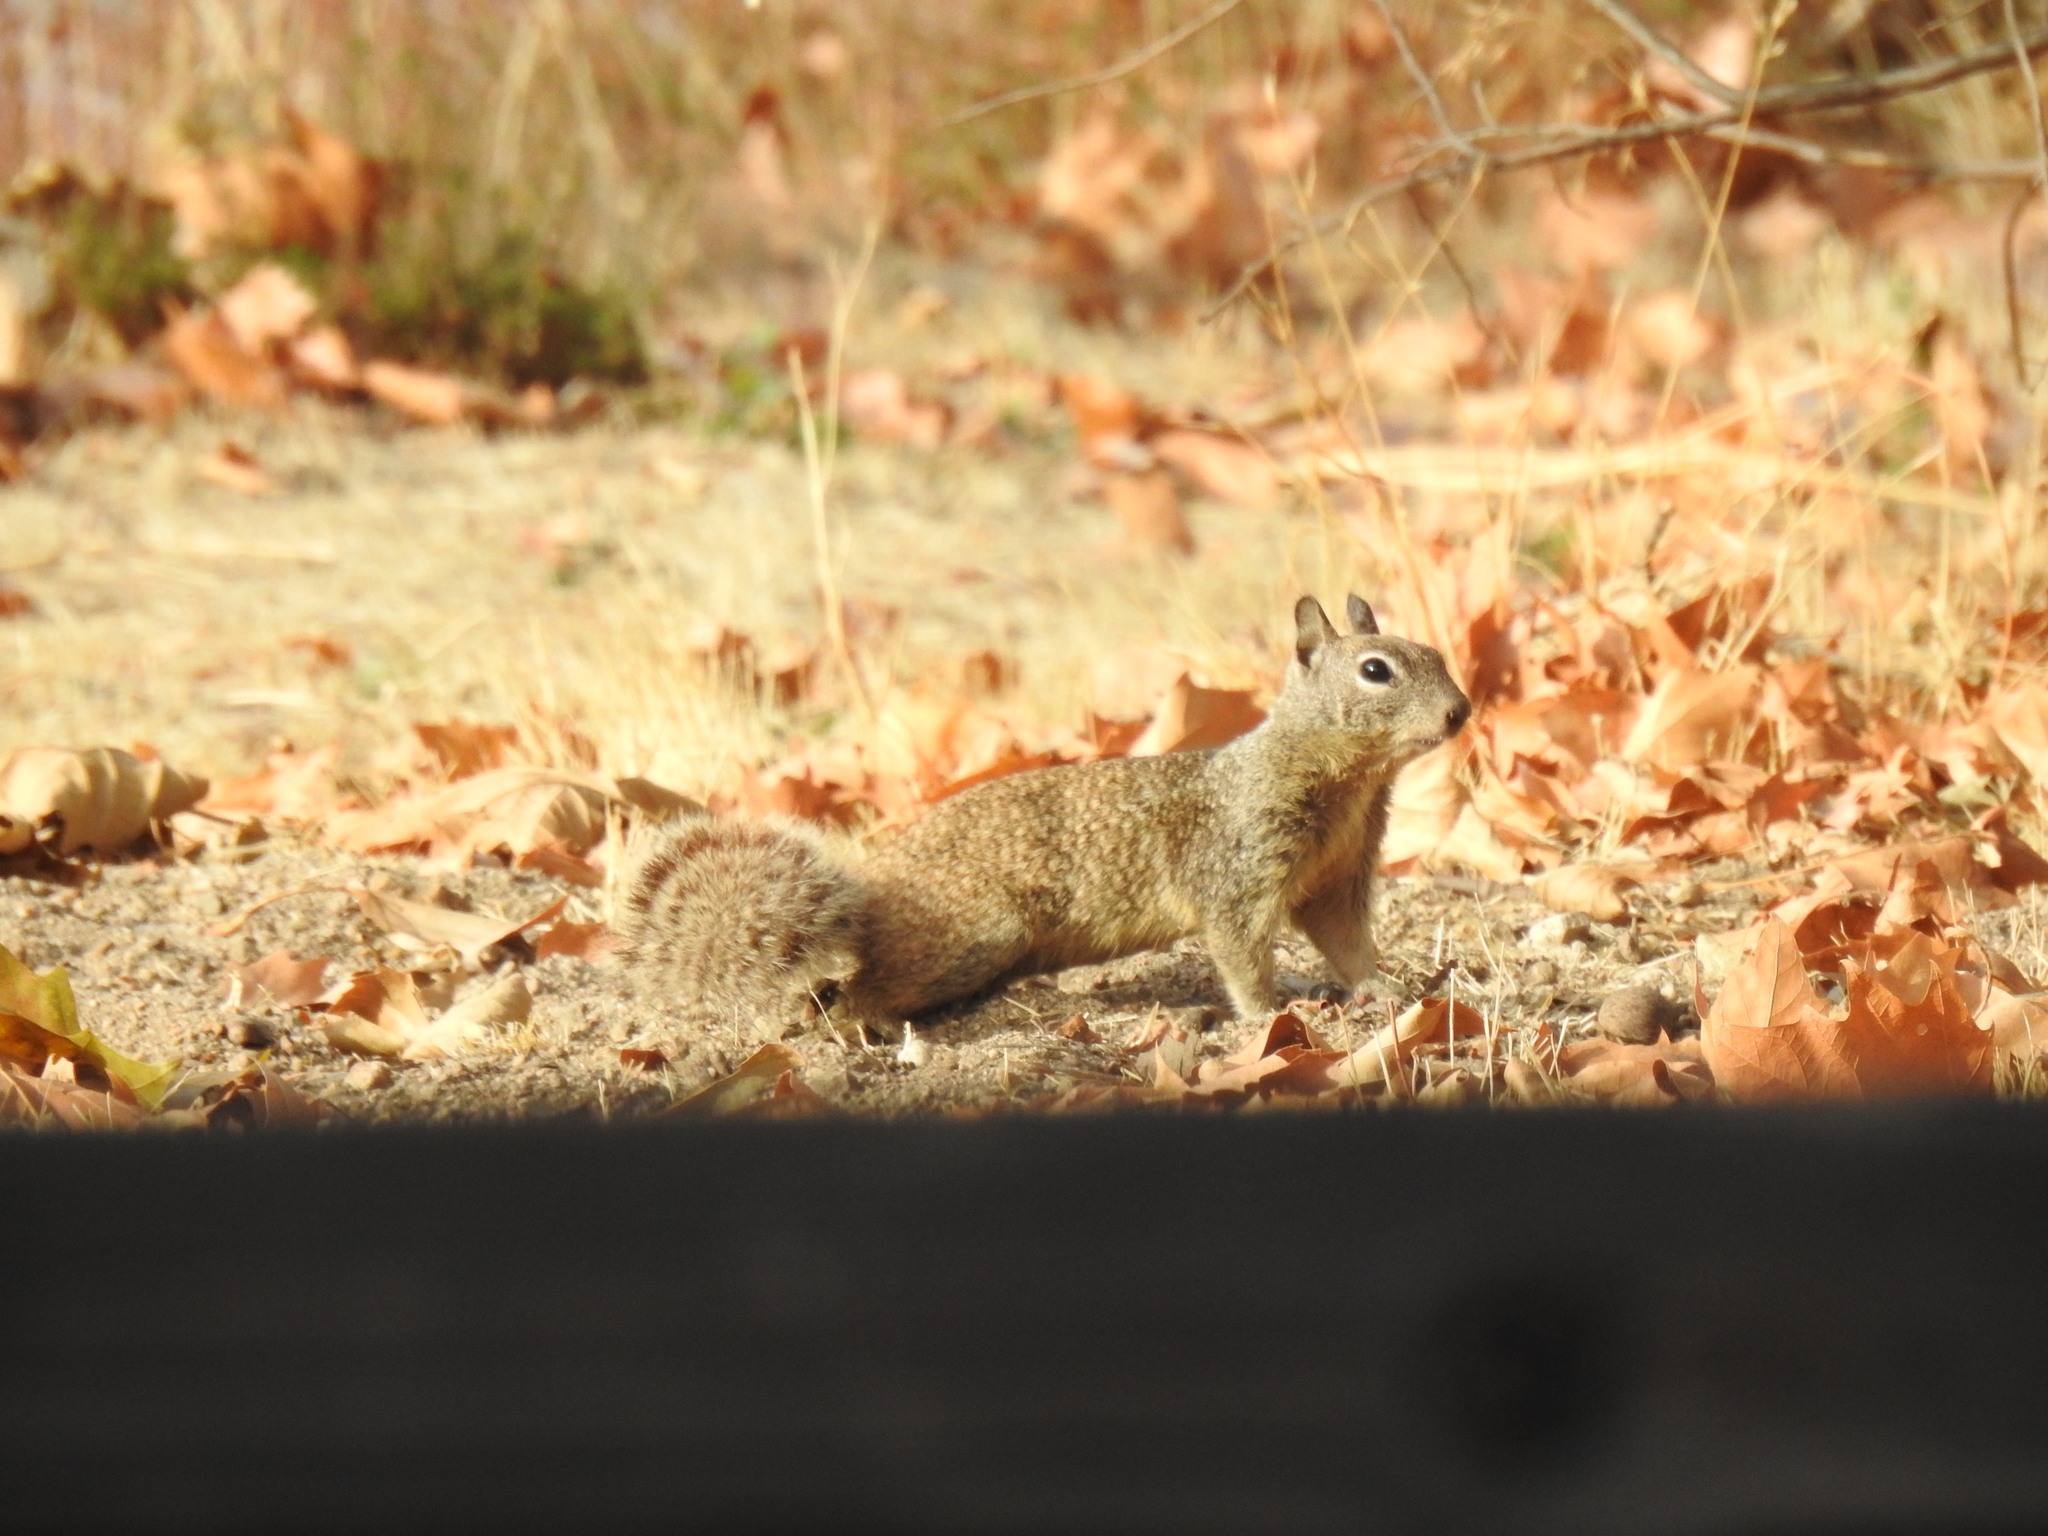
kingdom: Animalia
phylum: Chordata
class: Mammalia
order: Rodentia
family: Sciuridae
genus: Otospermophilus
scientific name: Otospermophilus beecheyi
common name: California ground squirrel
